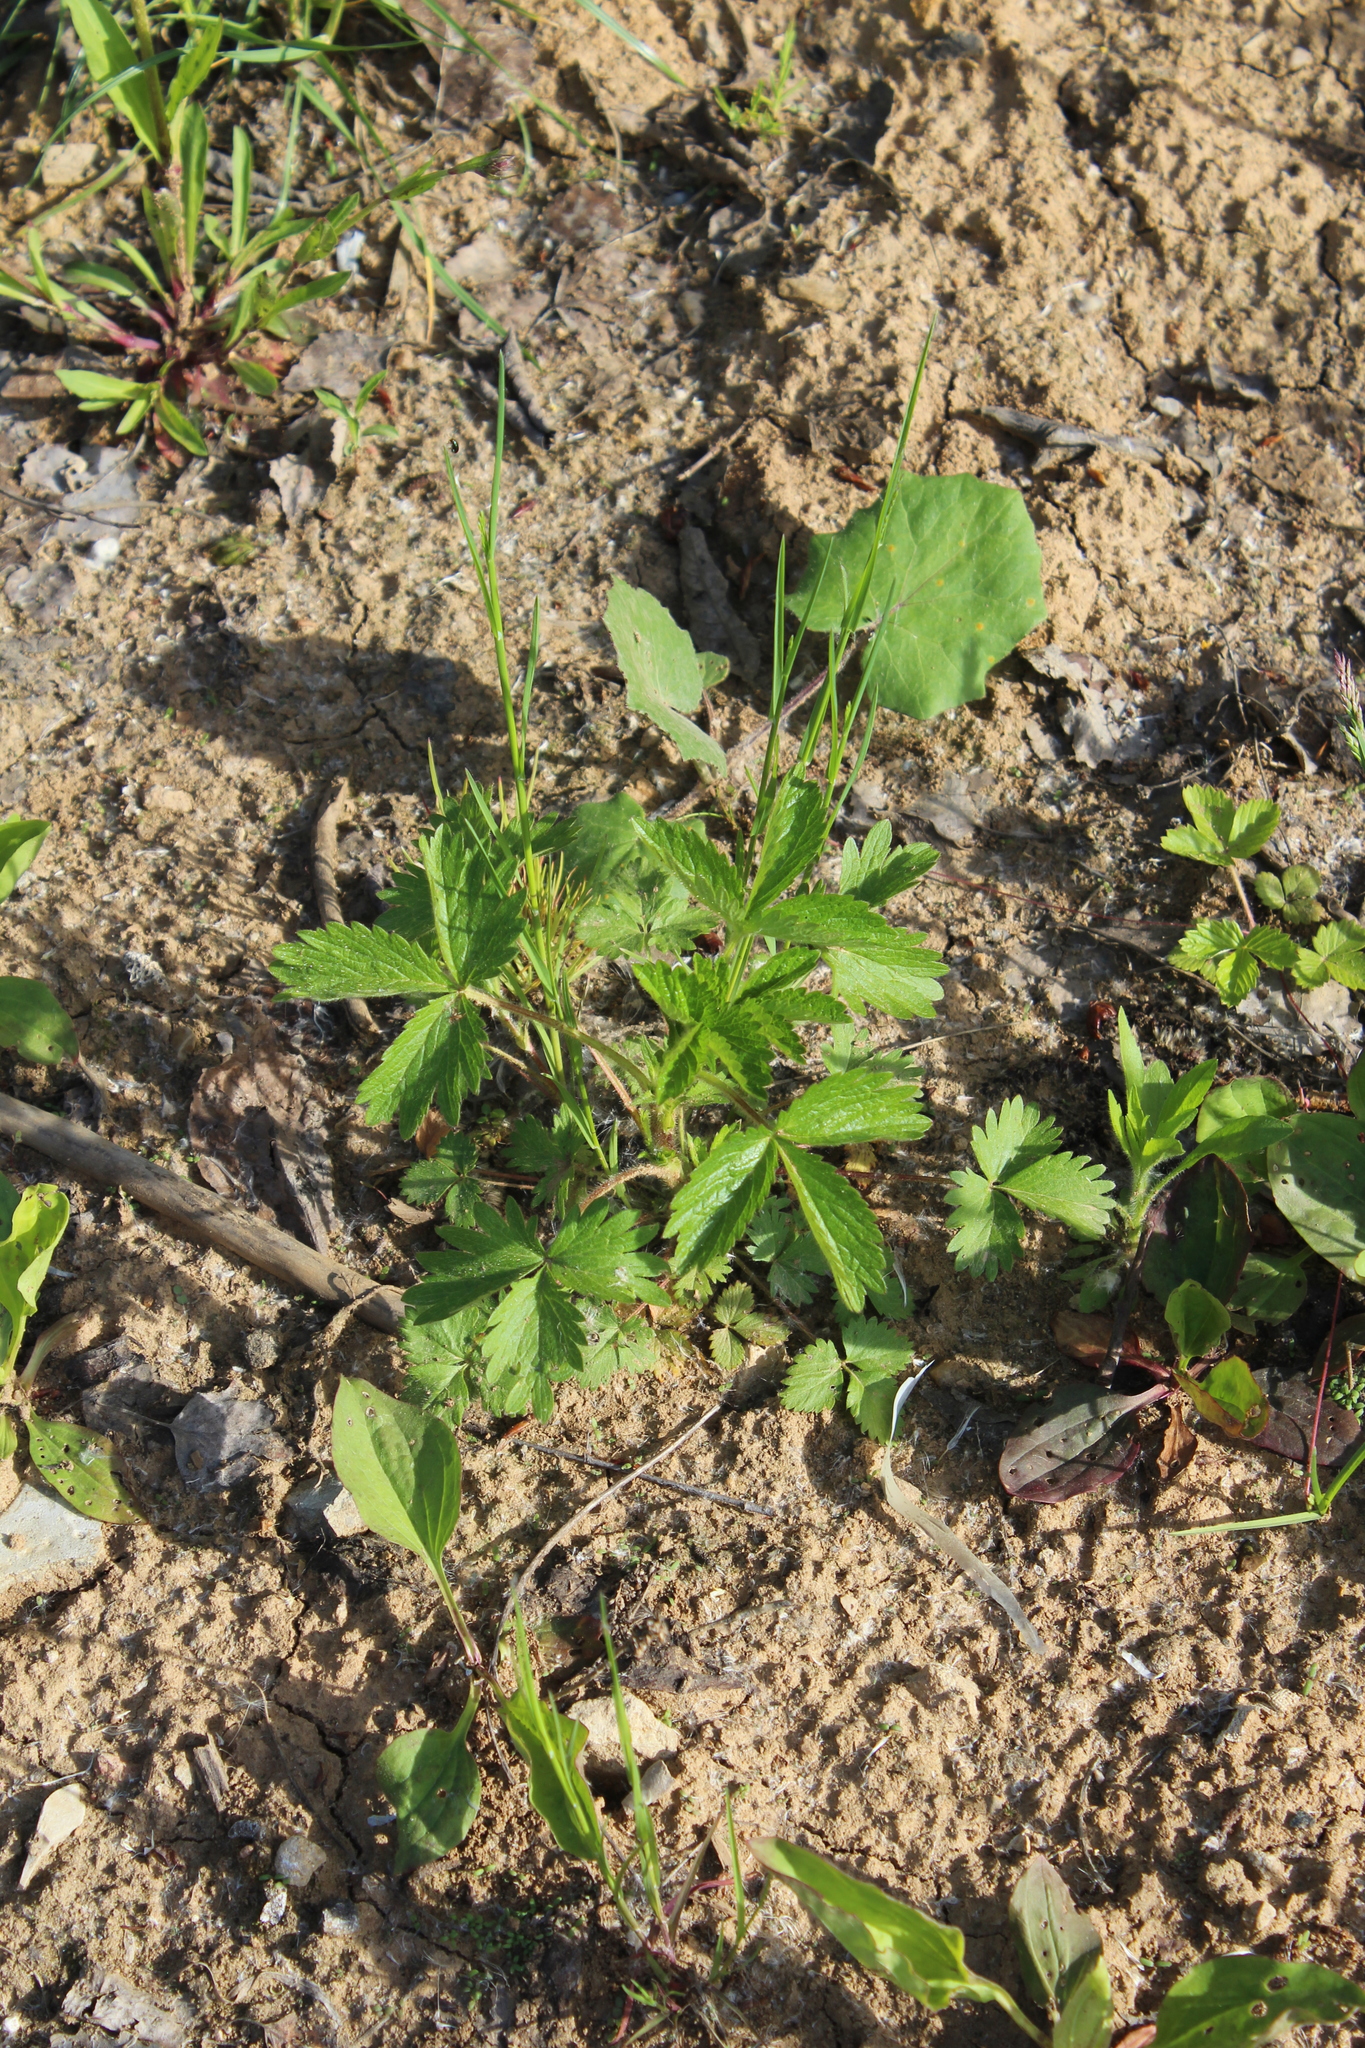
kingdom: Plantae
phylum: Tracheophyta
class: Magnoliopsida
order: Rosales
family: Rosaceae
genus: Potentilla
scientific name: Potentilla norvegica
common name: Ternate-leaved cinquefoil
